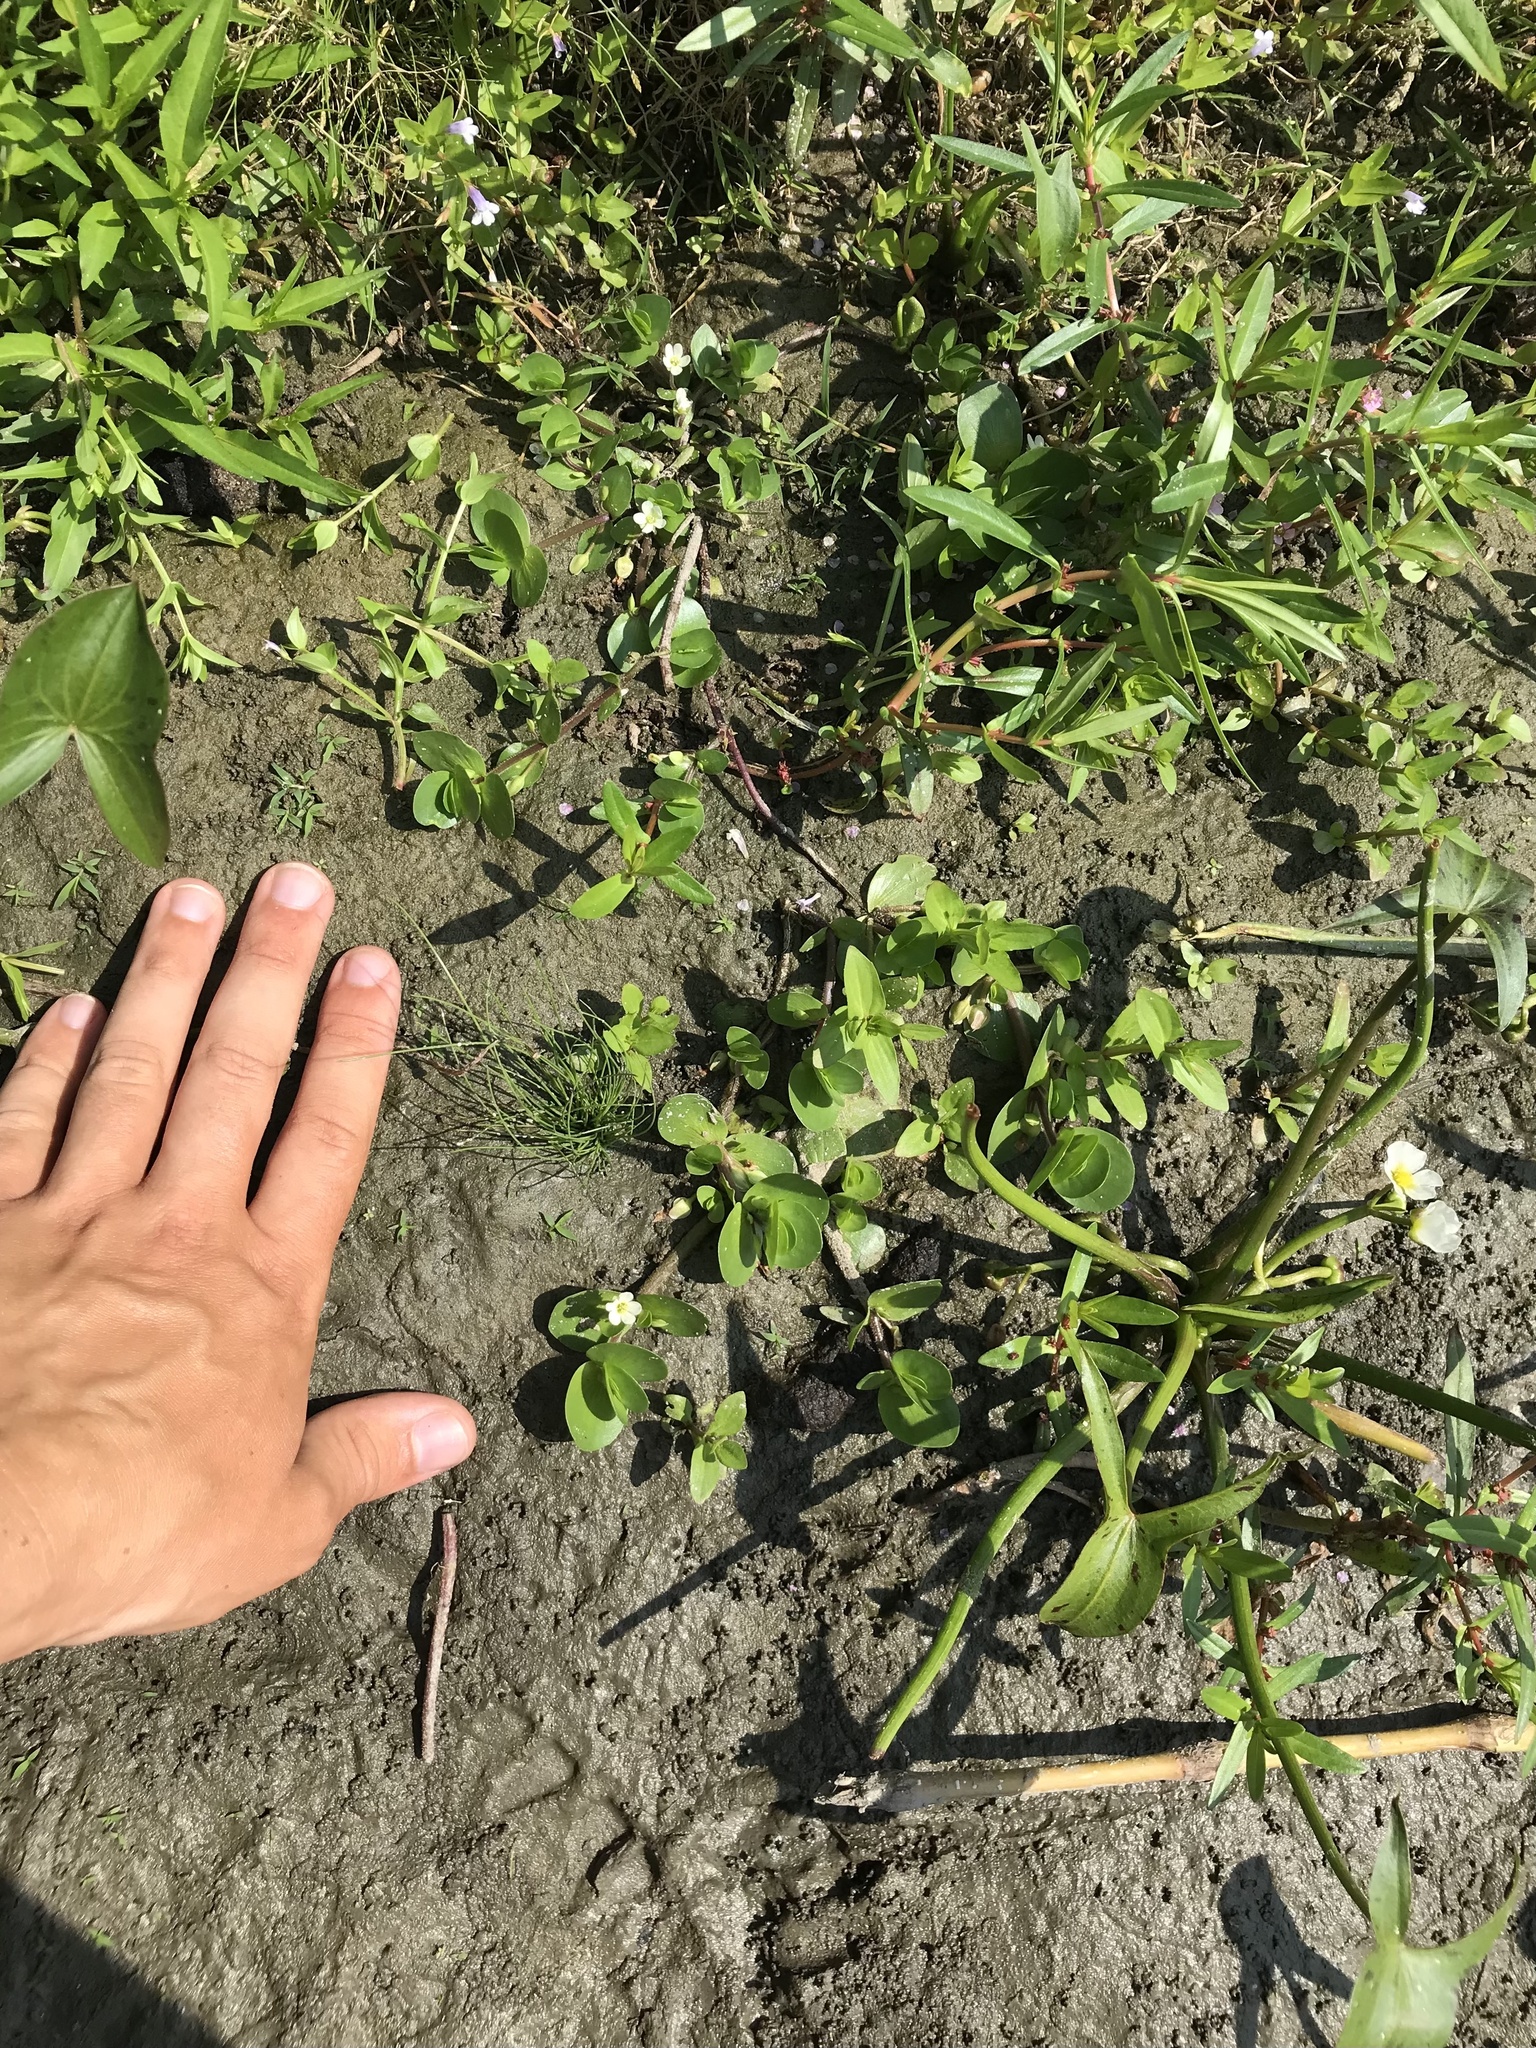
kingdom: Plantae
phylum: Tracheophyta
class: Magnoliopsida
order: Lamiales
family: Plantaginaceae
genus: Bacopa
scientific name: Bacopa rotundifolia
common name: Disc water hyssop
